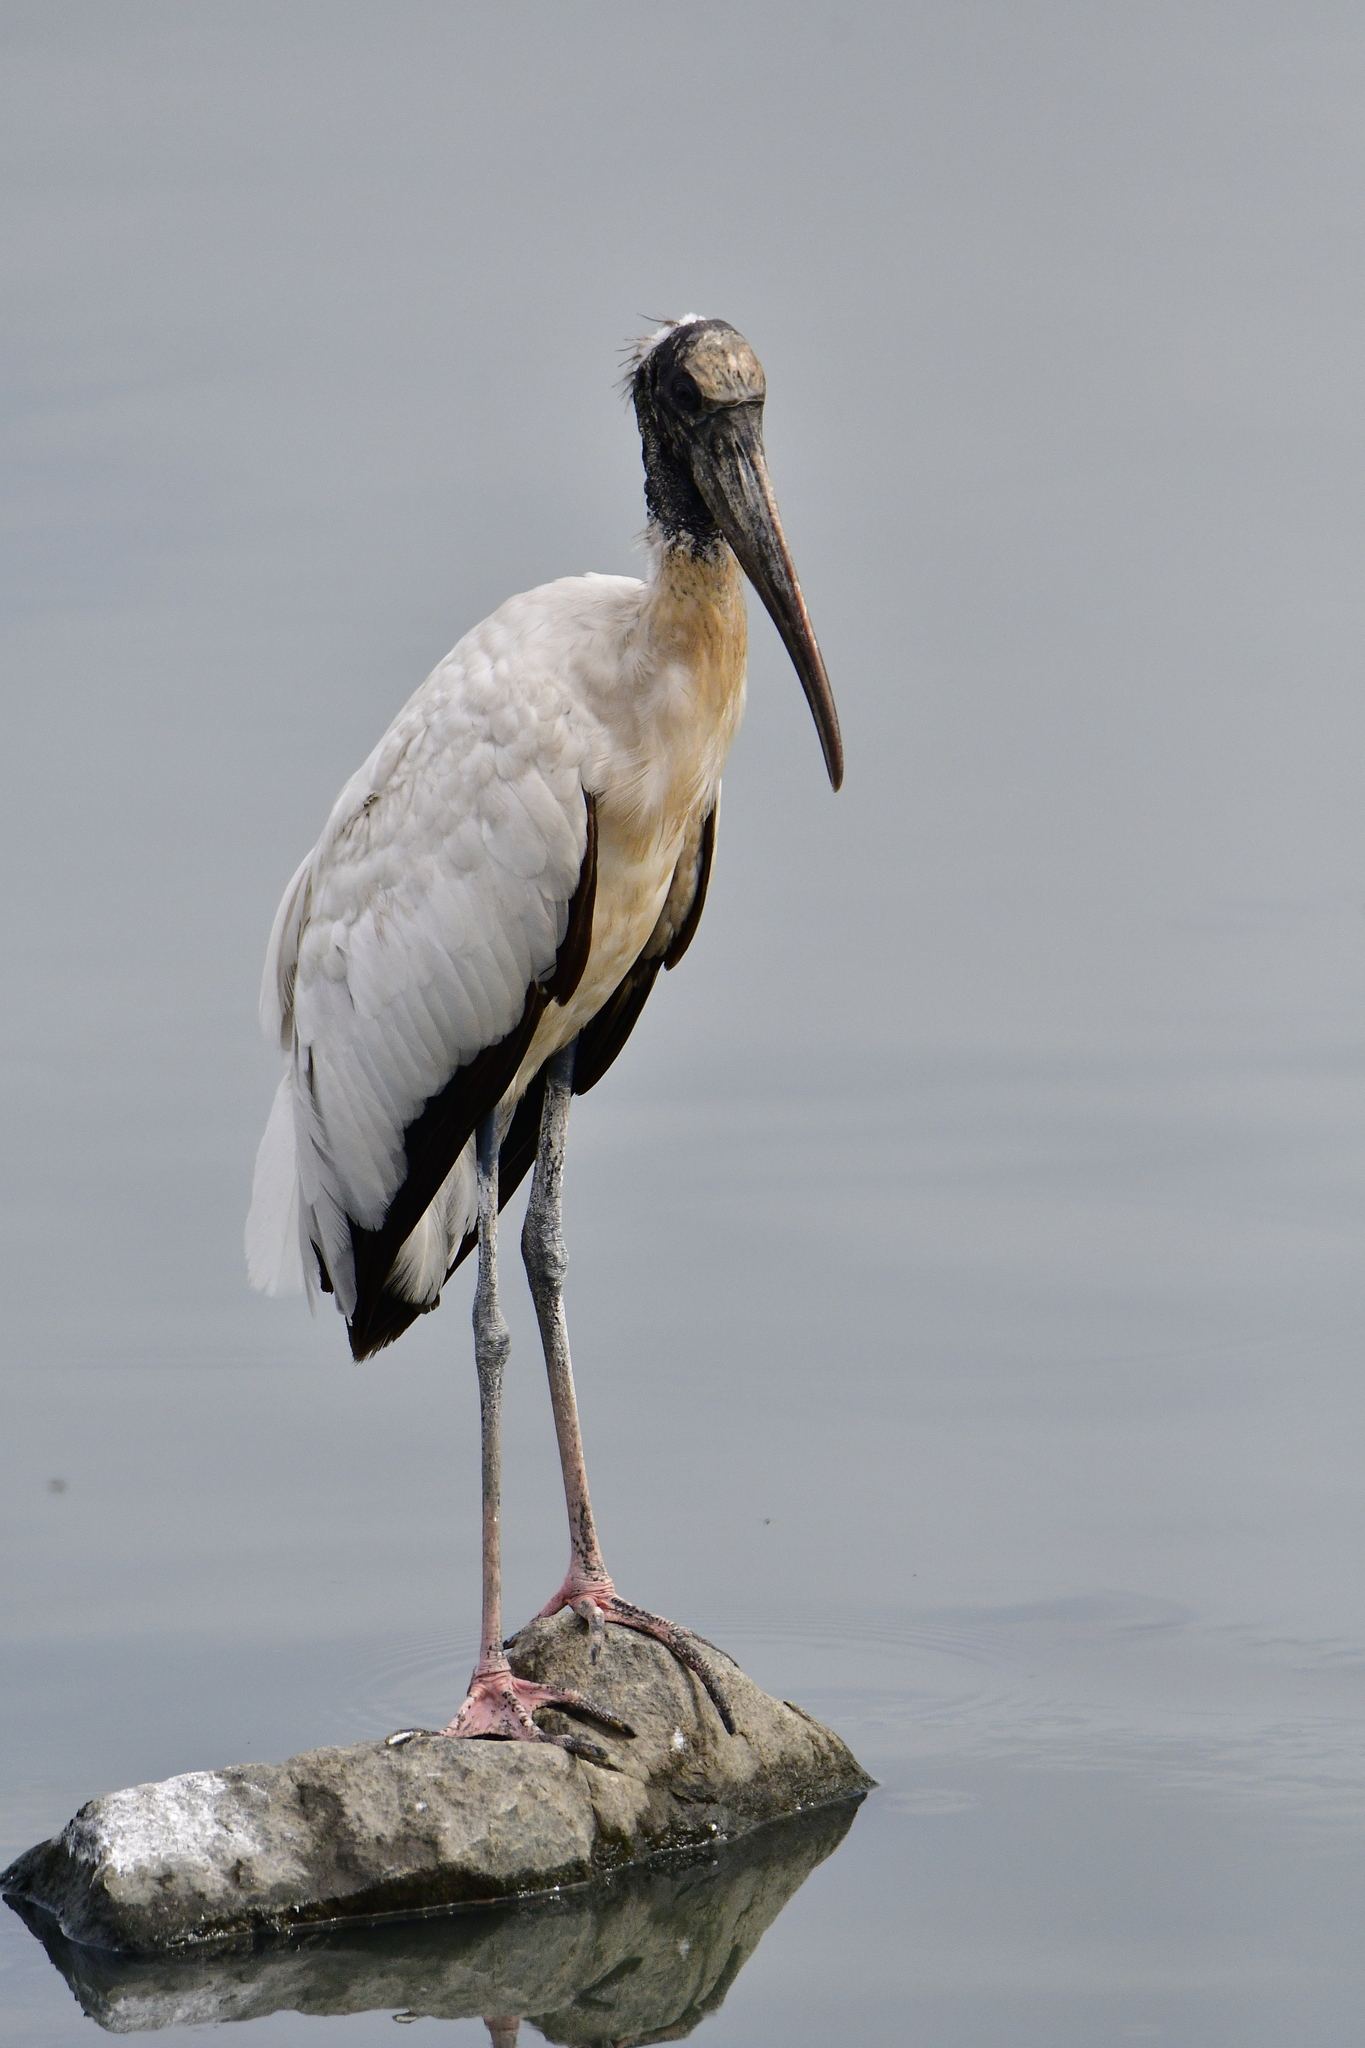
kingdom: Animalia
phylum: Chordata
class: Aves
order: Ciconiiformes
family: Ciconiidae
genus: Mycteria
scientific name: Mycteria americana
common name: Wood stork
